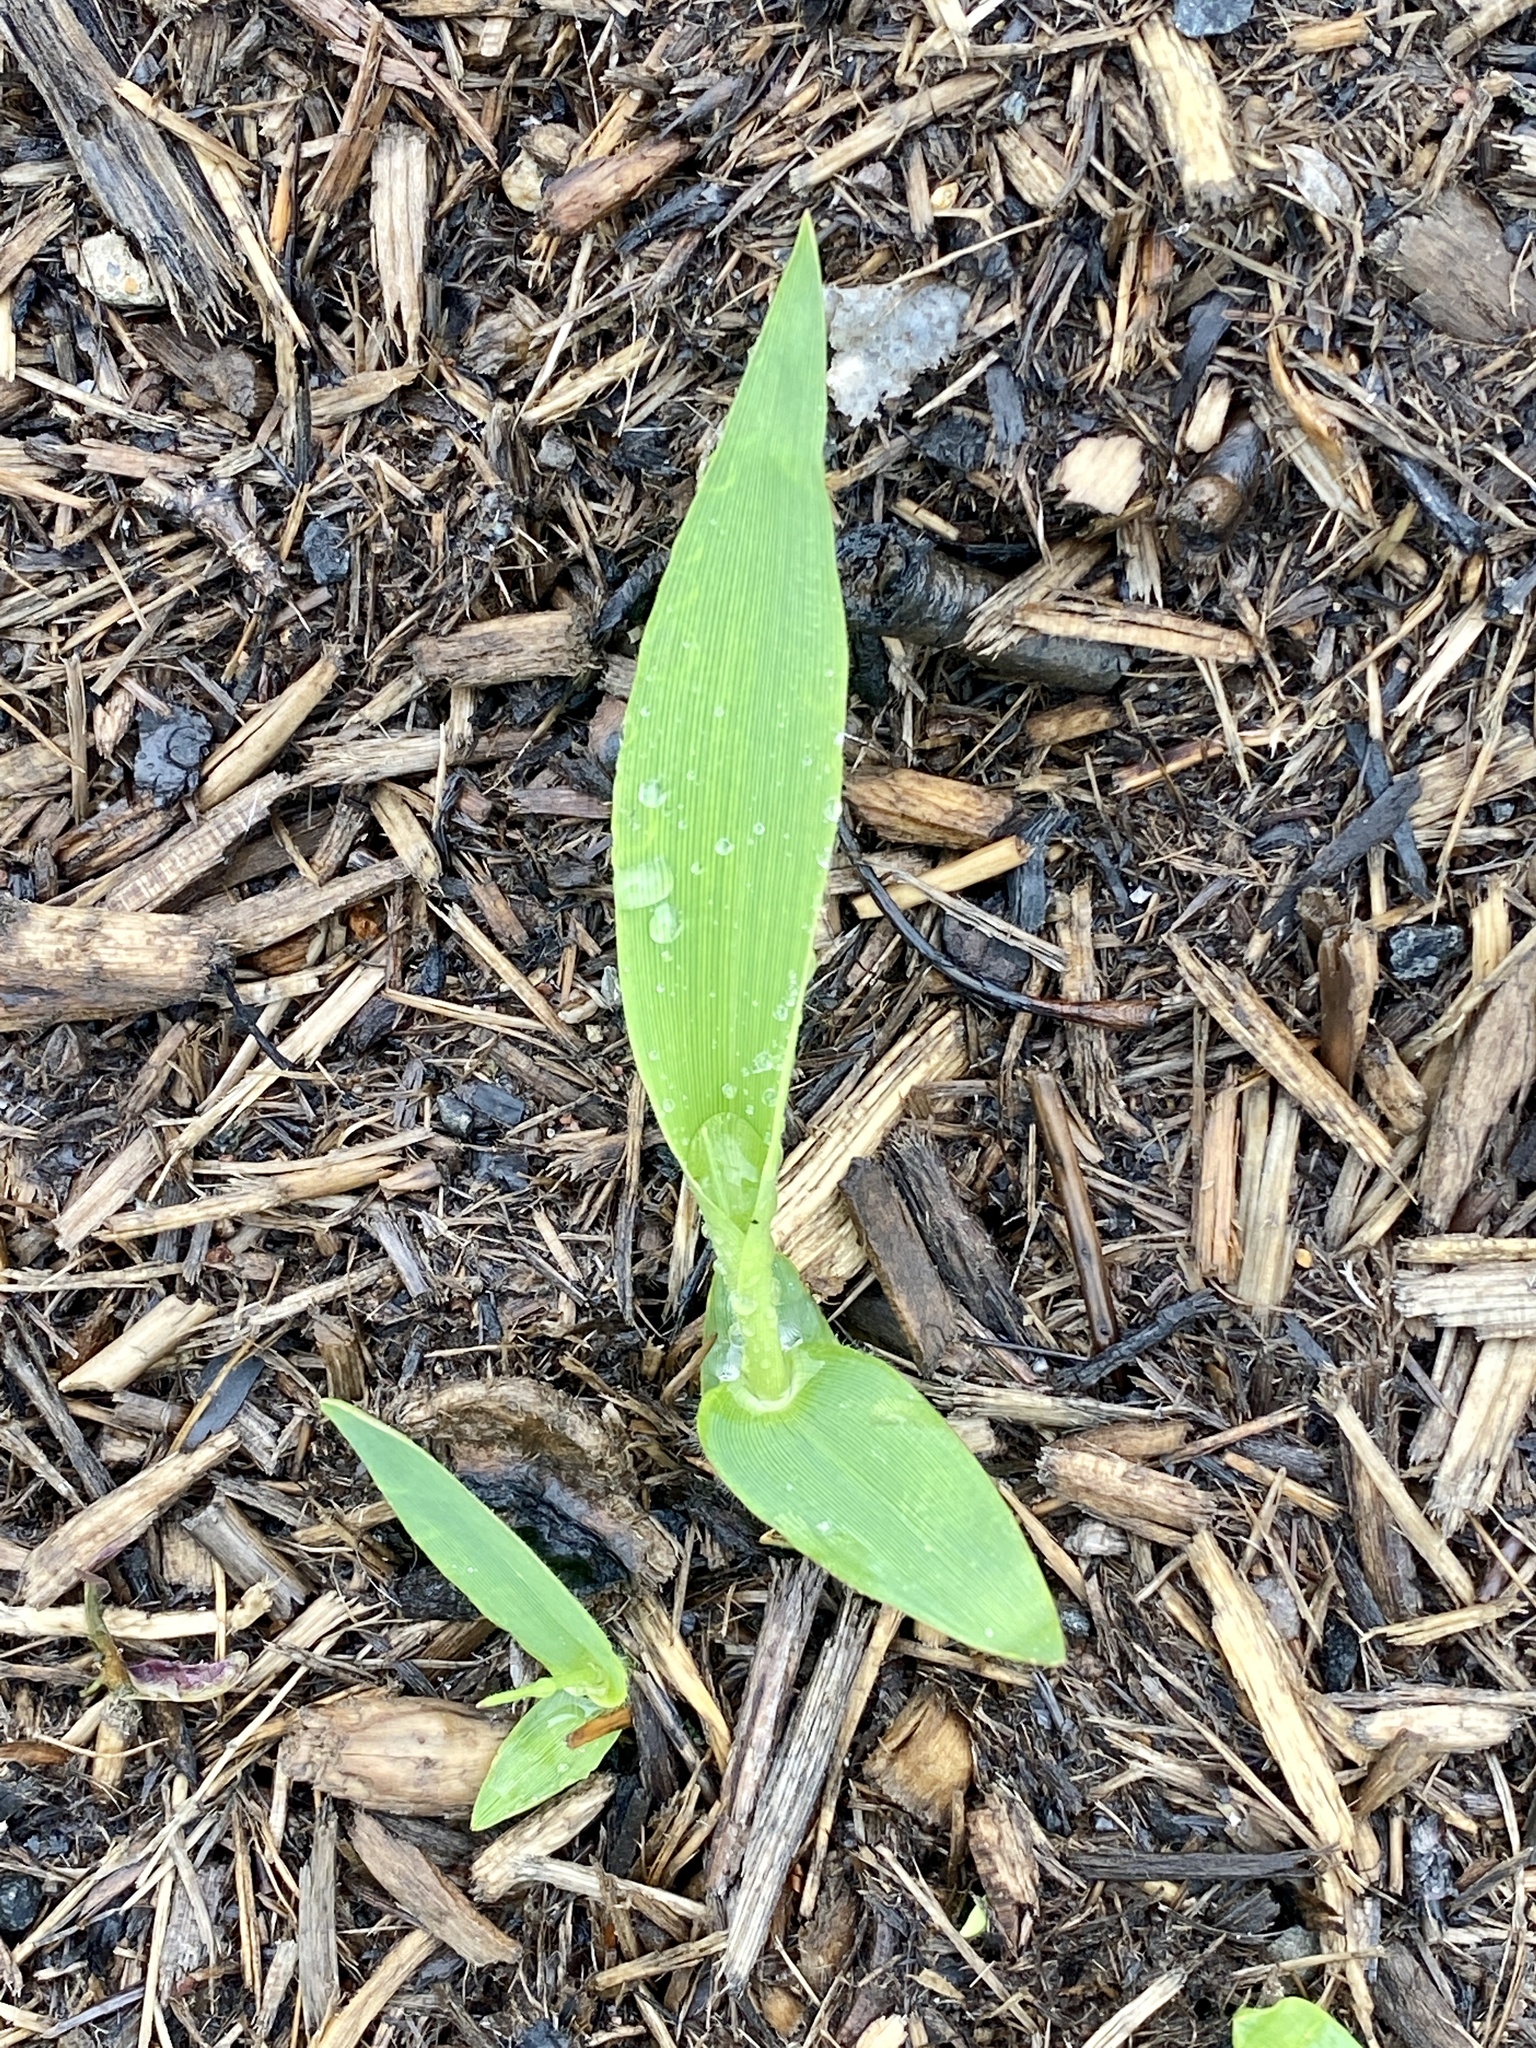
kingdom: Plantae
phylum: Tracheophyta
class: Liliopsida
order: Poales
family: Poaceae
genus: Dichanthelium
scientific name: Dichanthelium clandestinum
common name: Deer-tongue grass
